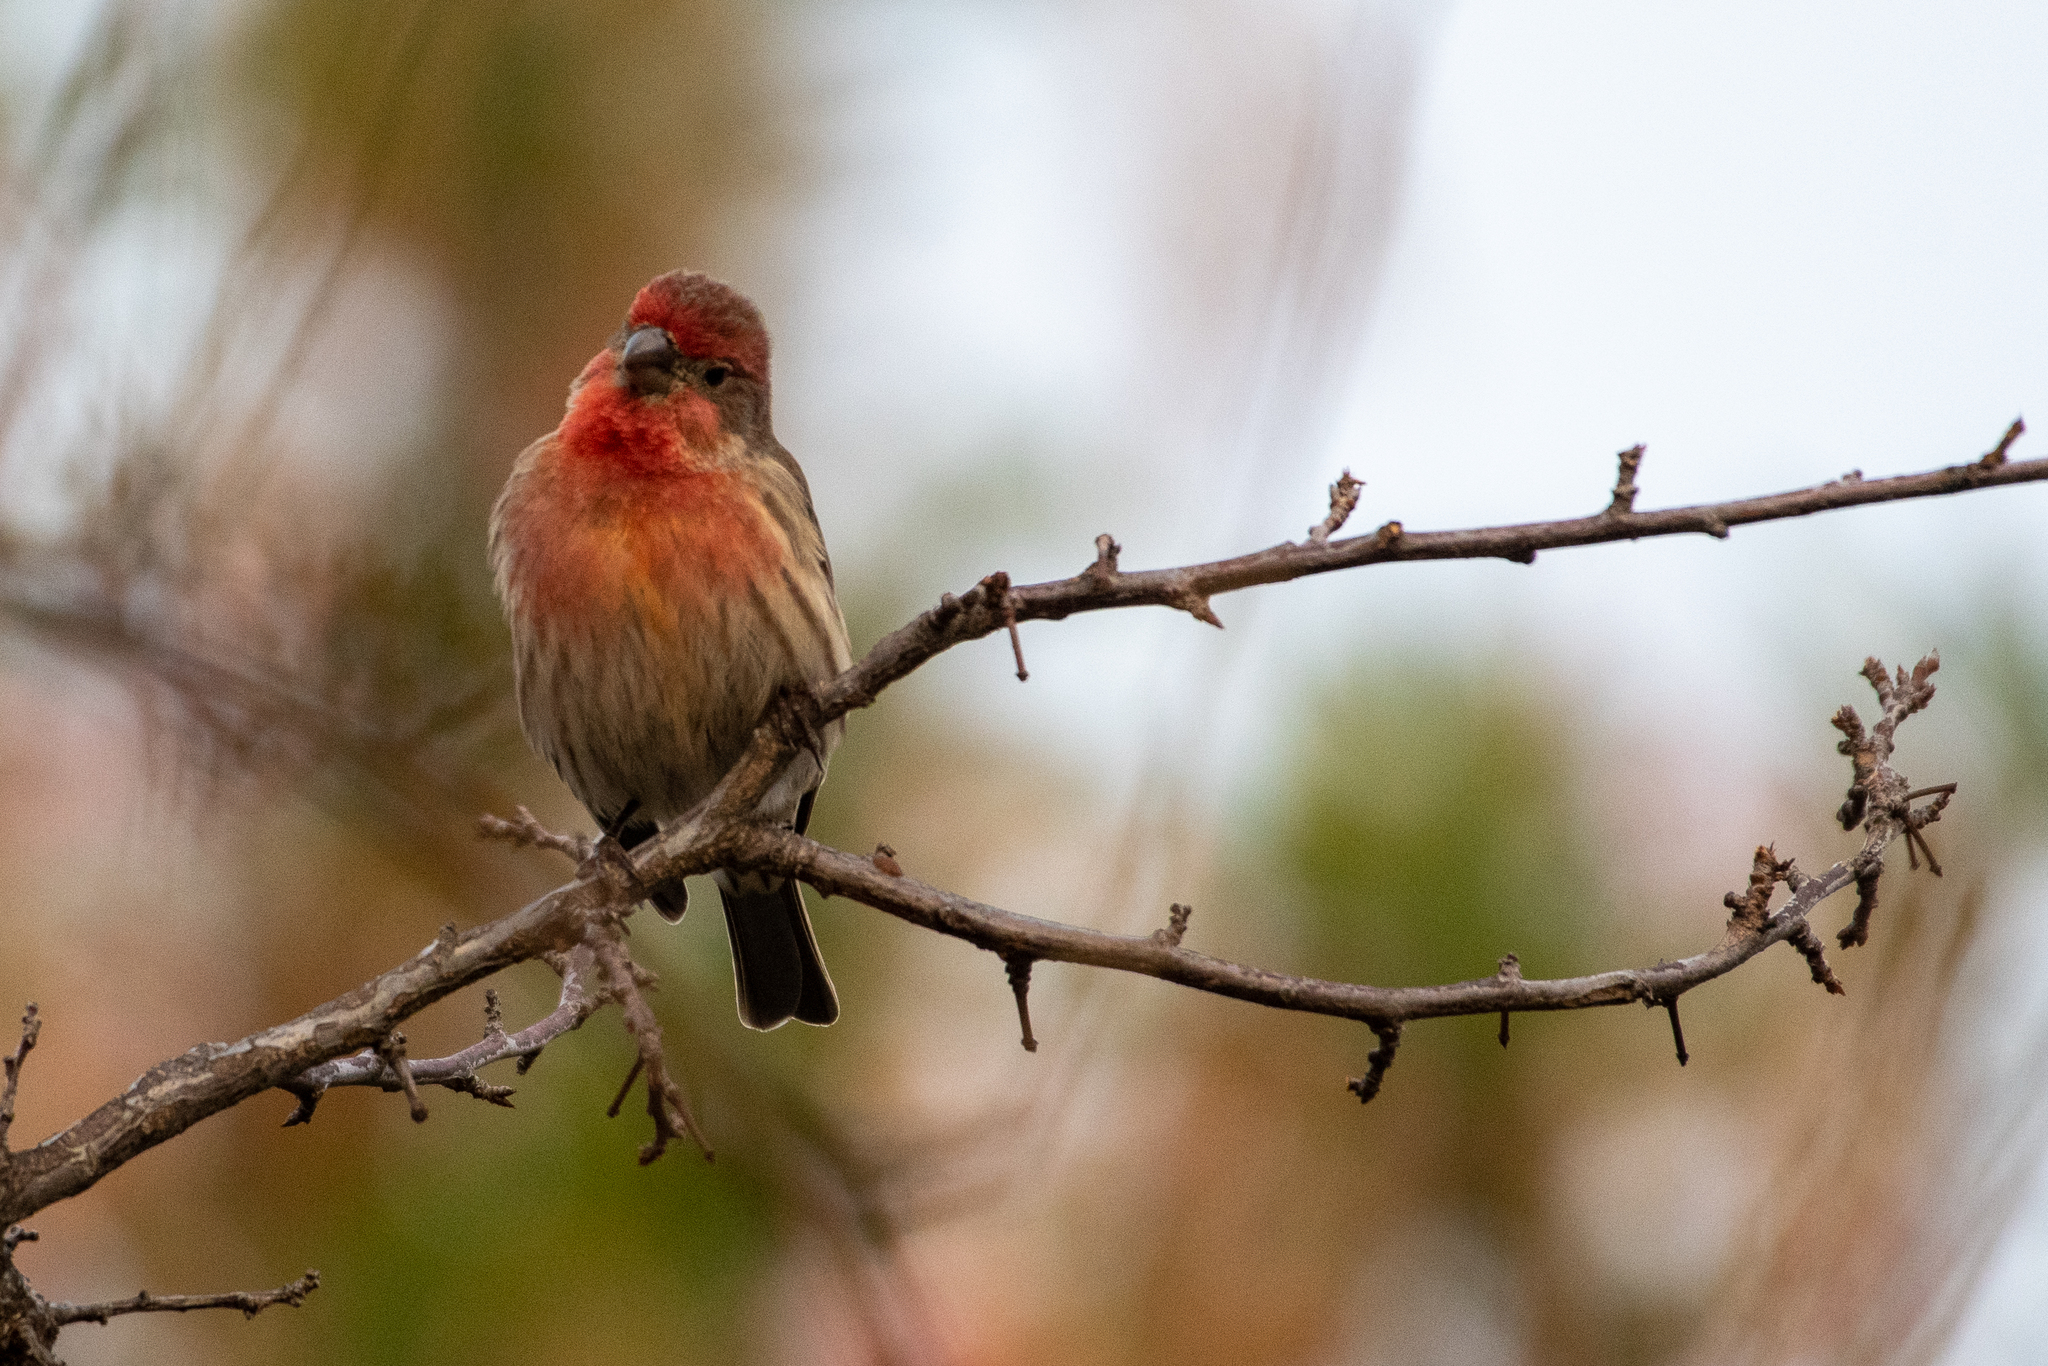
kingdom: Animalia
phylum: Chordata
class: Aves
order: Passeriformes
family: Fringillidae
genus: Haemorhous
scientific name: Haemorhous mexicanus
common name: House finch
